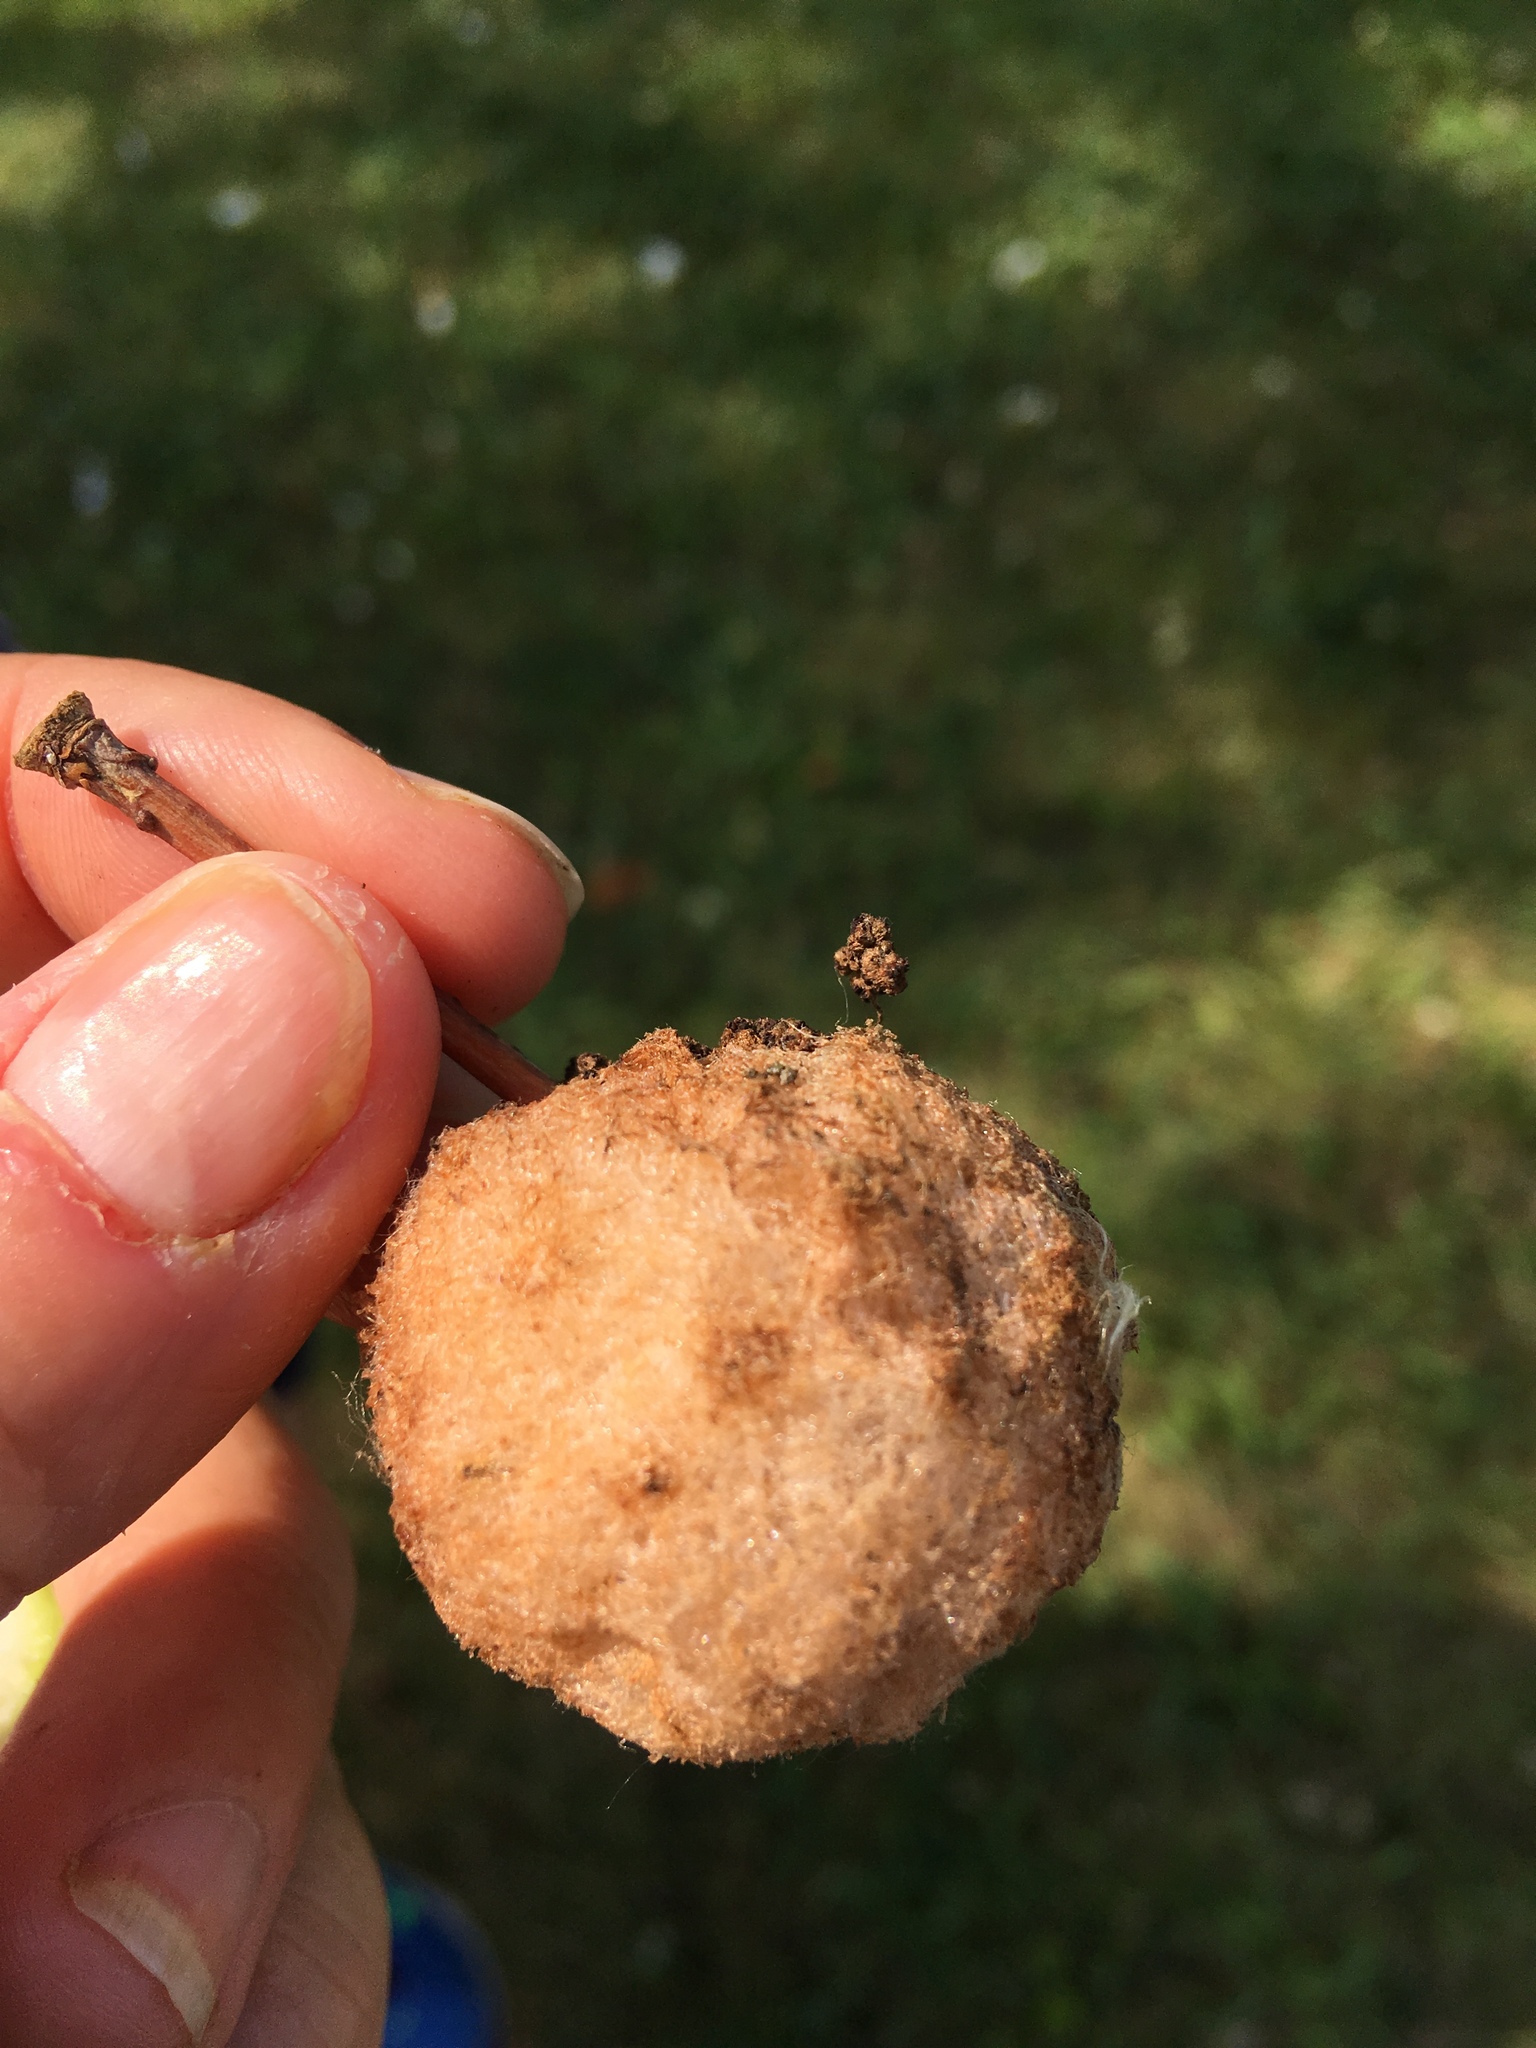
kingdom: Animalia
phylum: Arthropoda
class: Insecta
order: Hymenoptera
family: Cynipidae
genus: Callirhytis
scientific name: Callirhytis
